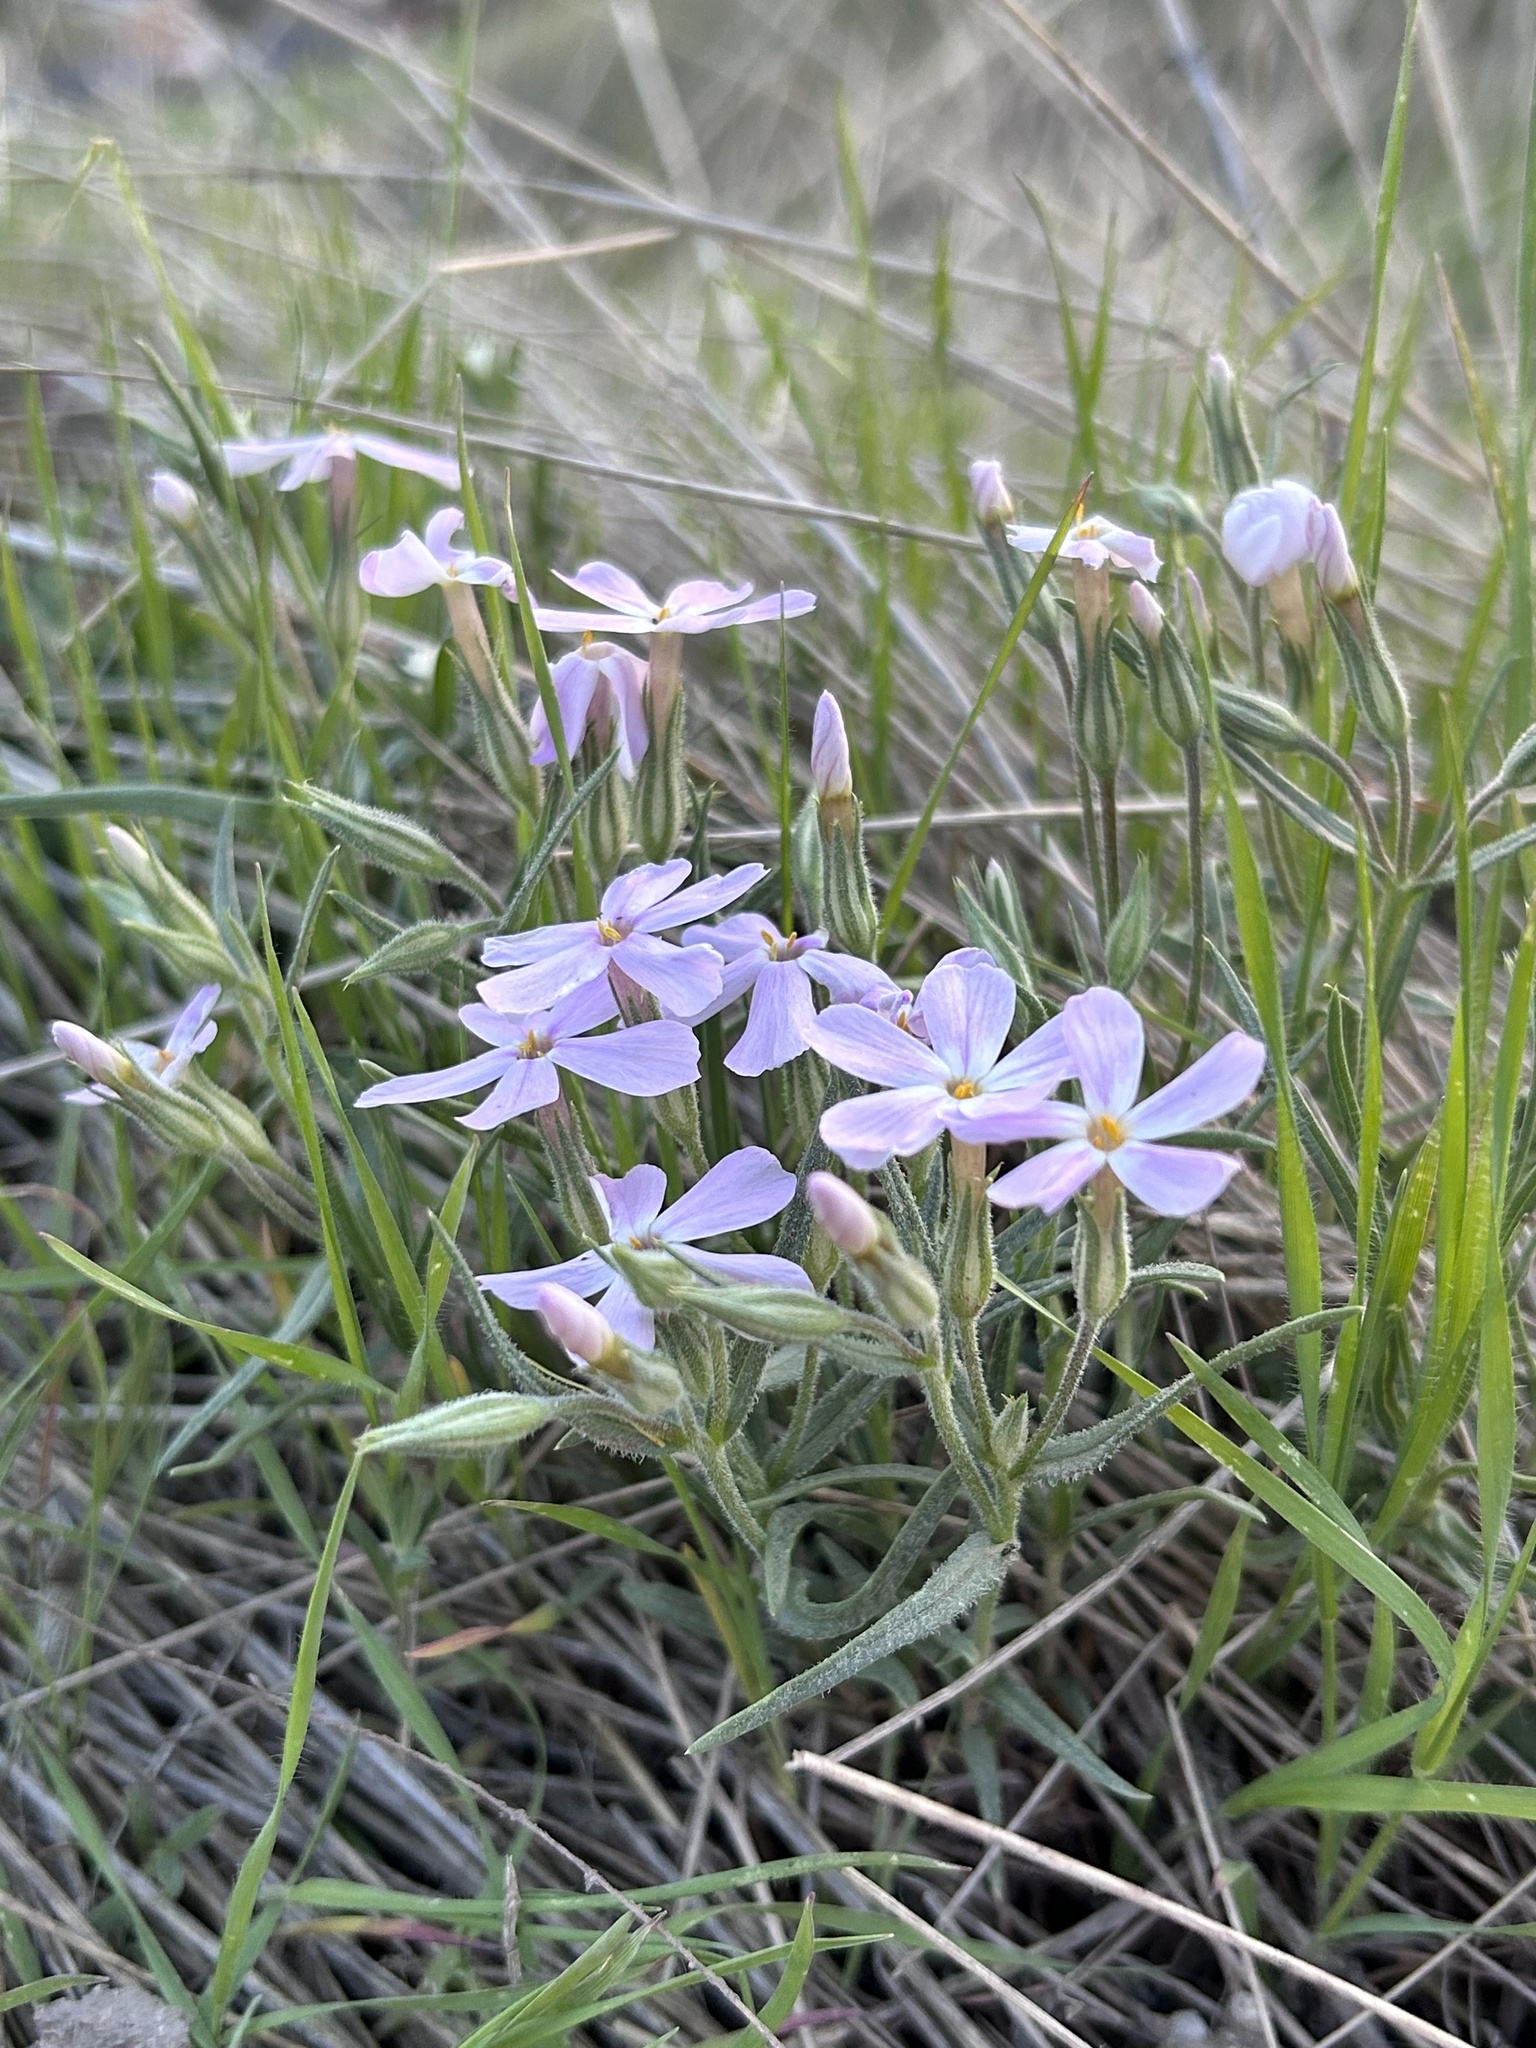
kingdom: Plantae
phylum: Tracheophyta
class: Magnoliopsida
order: Ericales
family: Polemoniaceae
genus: Phlox
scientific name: Phlox longifolia
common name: Longleaf phlox
